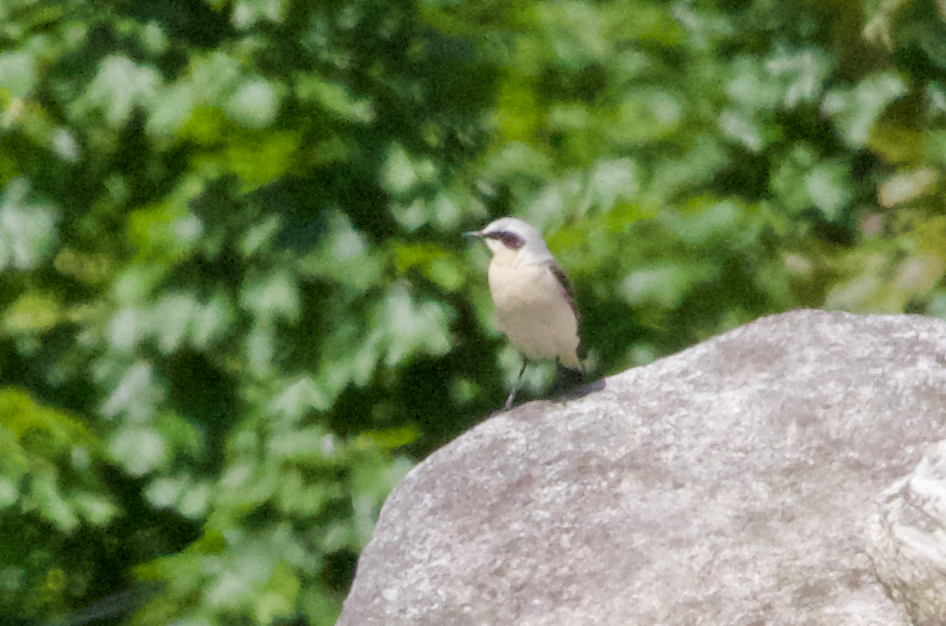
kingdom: Animalia
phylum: Chordata
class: Aves
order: Passeriformes
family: Muscicapidae
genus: Oenanthe
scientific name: Oenanthe oenanthe
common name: Northern wheatear
